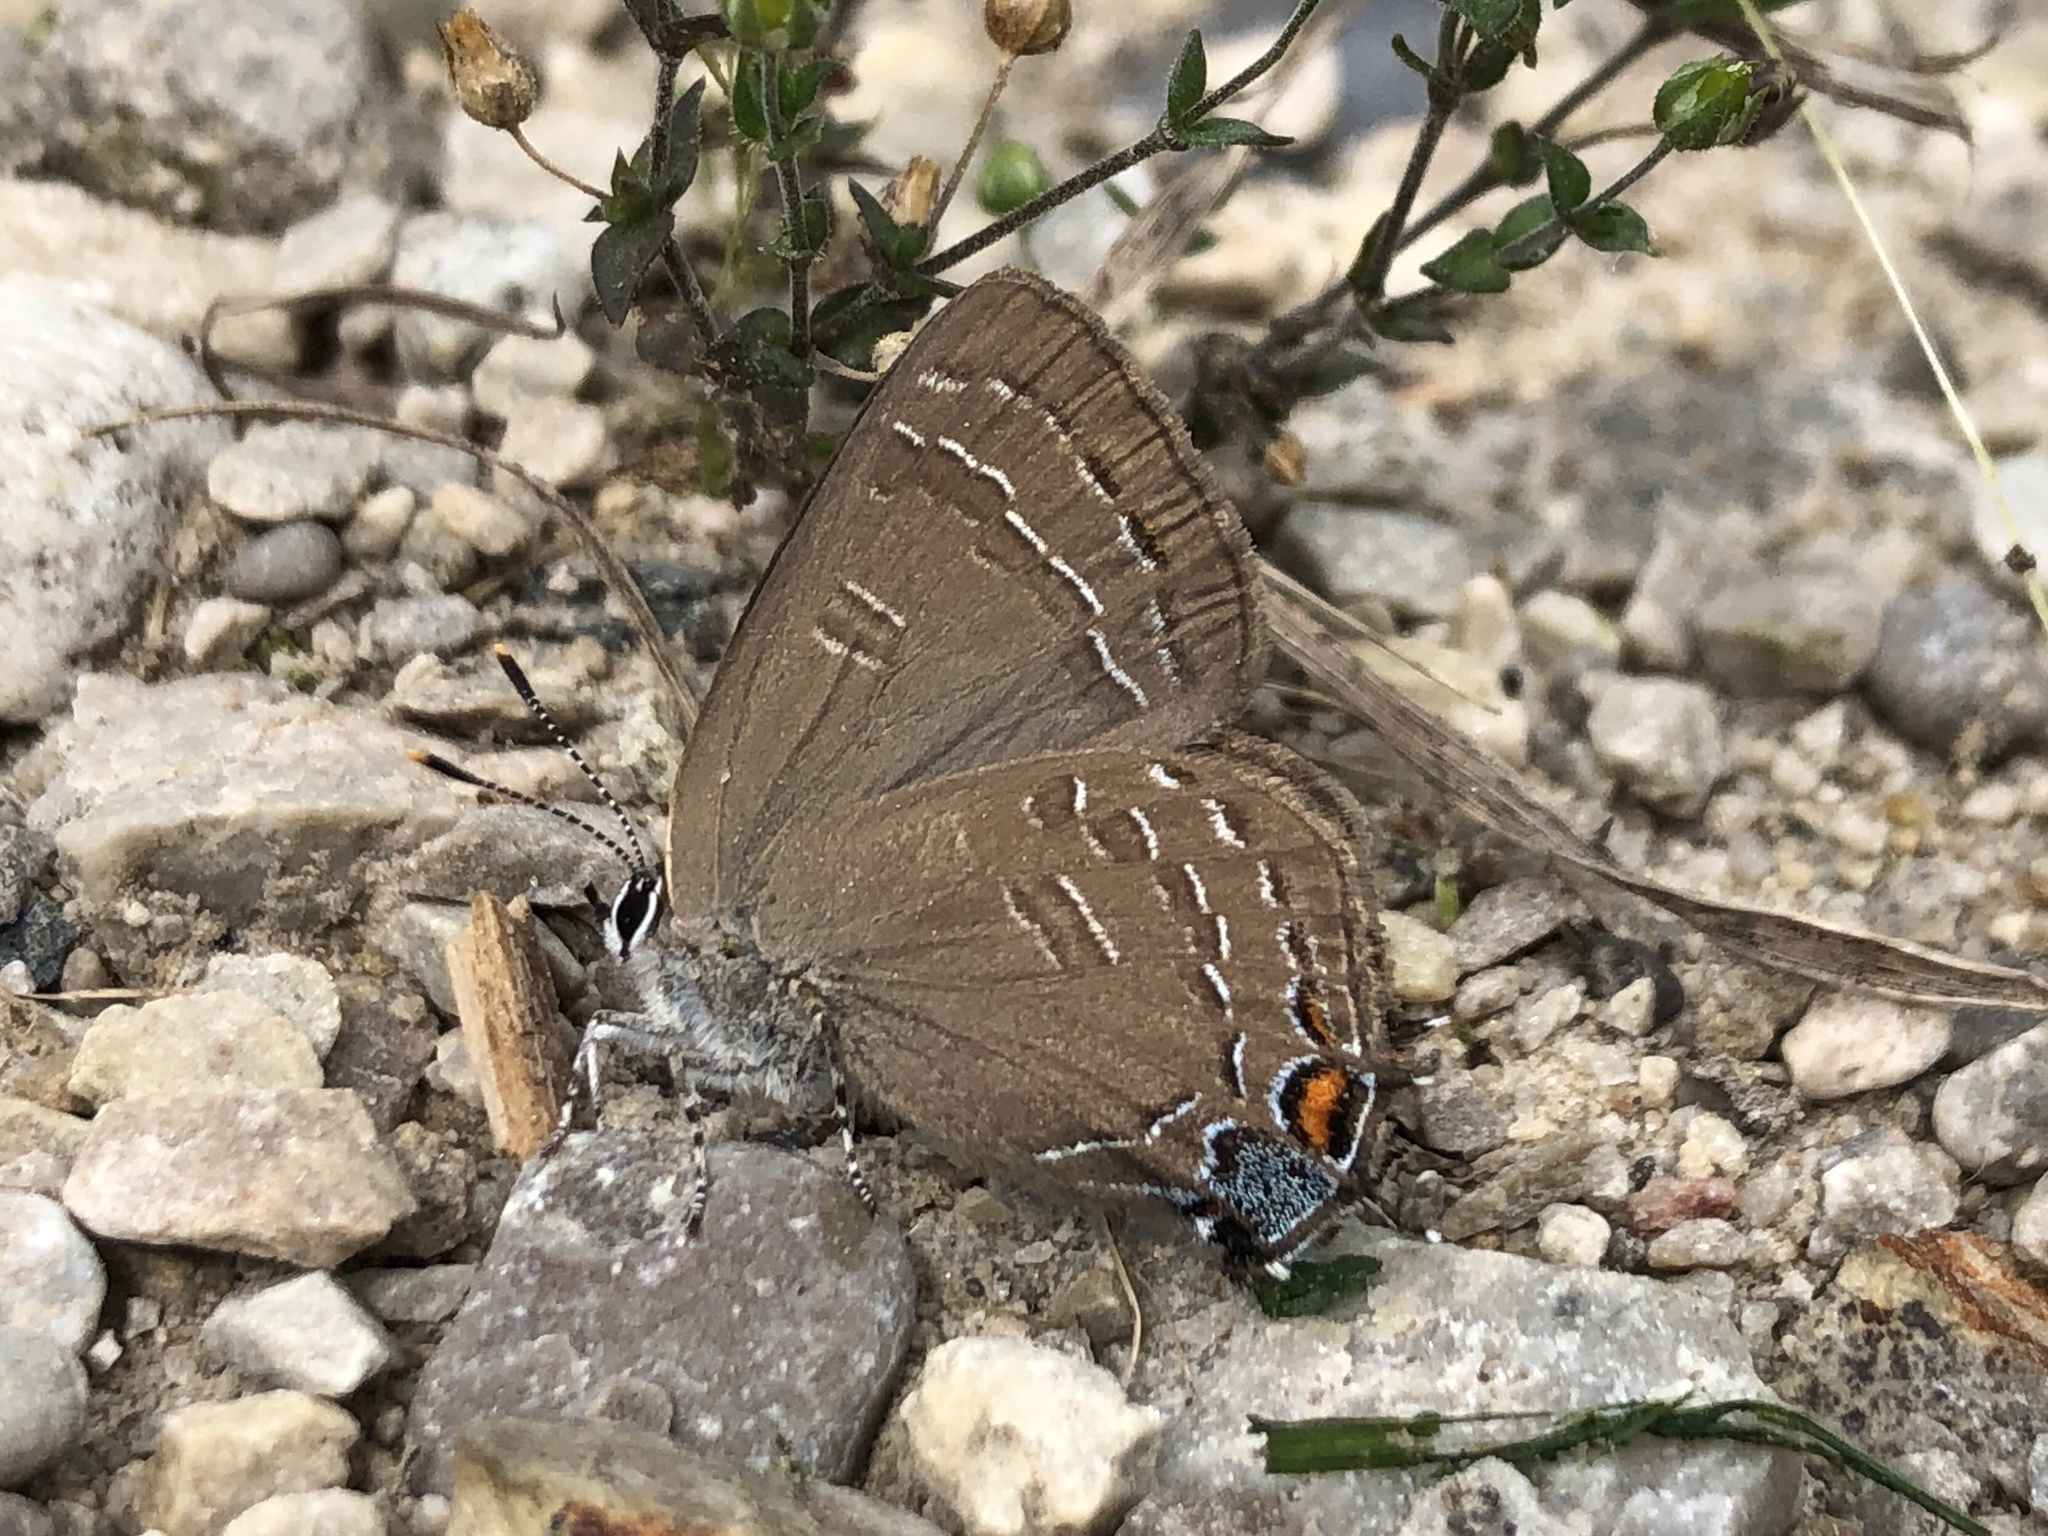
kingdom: Animalia
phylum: Arthropoda
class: Insecta
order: Lepidoptera
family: Lycaenidae
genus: Satyrium
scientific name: Satyrium calanus
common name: Banded hairstreak
